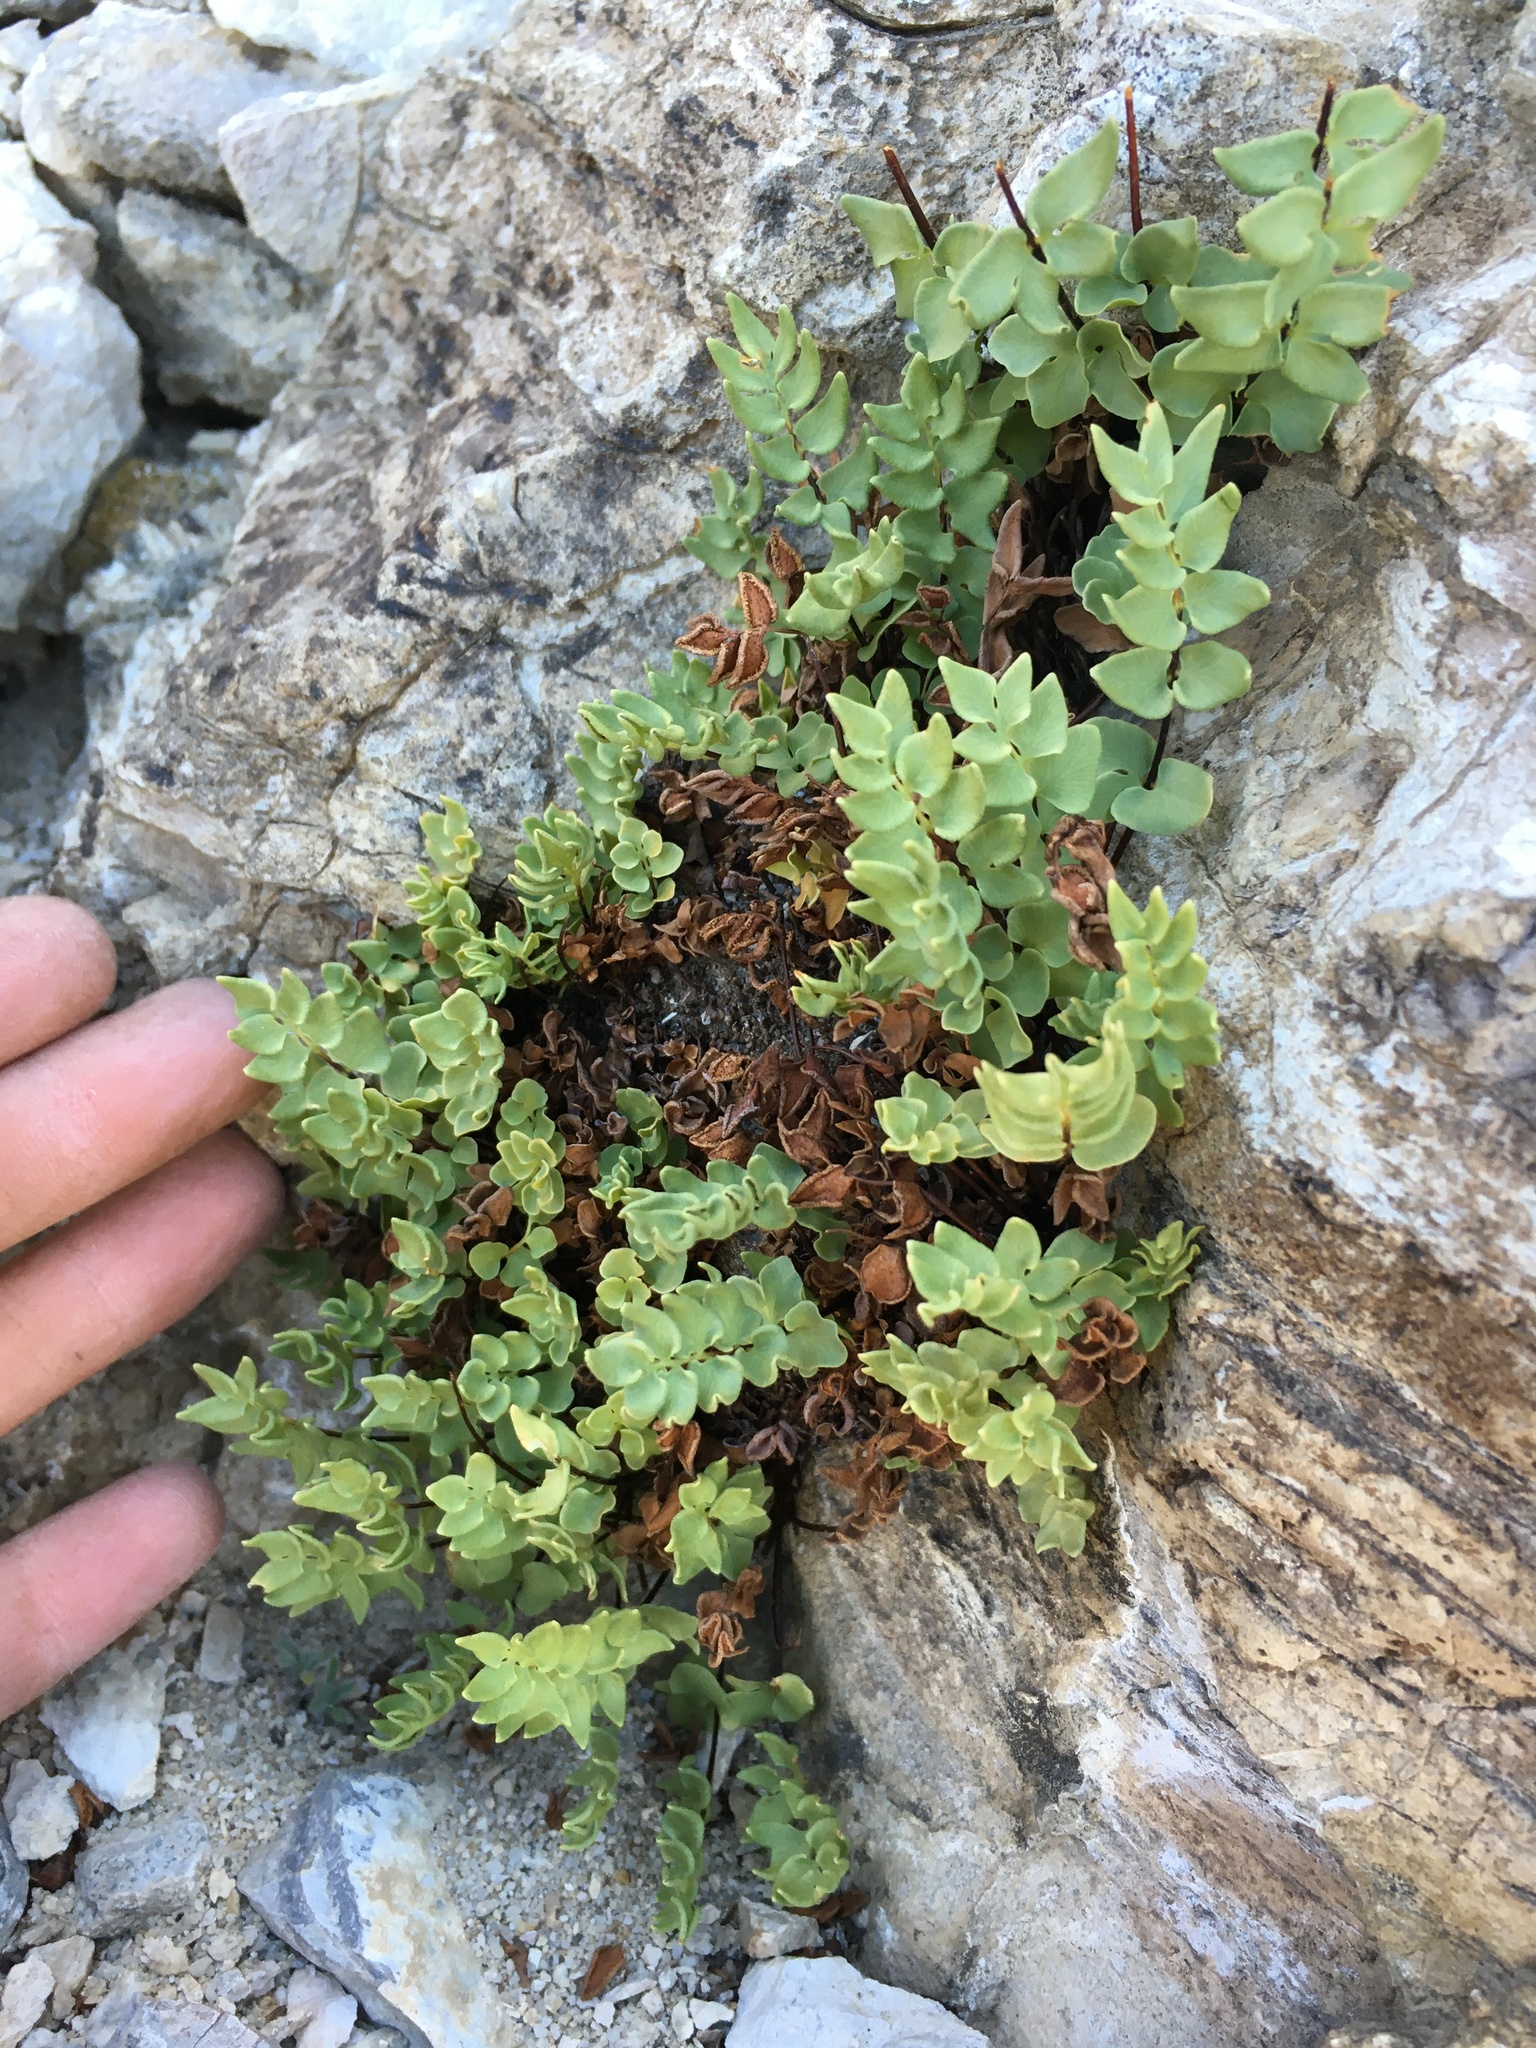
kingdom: Plantae
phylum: Tracheophyta
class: Polypodiopsida
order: Polypodiales
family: Pteridaceae
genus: Pellaea
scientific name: Pellaea breweri
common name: Brewer's cliffbrake
